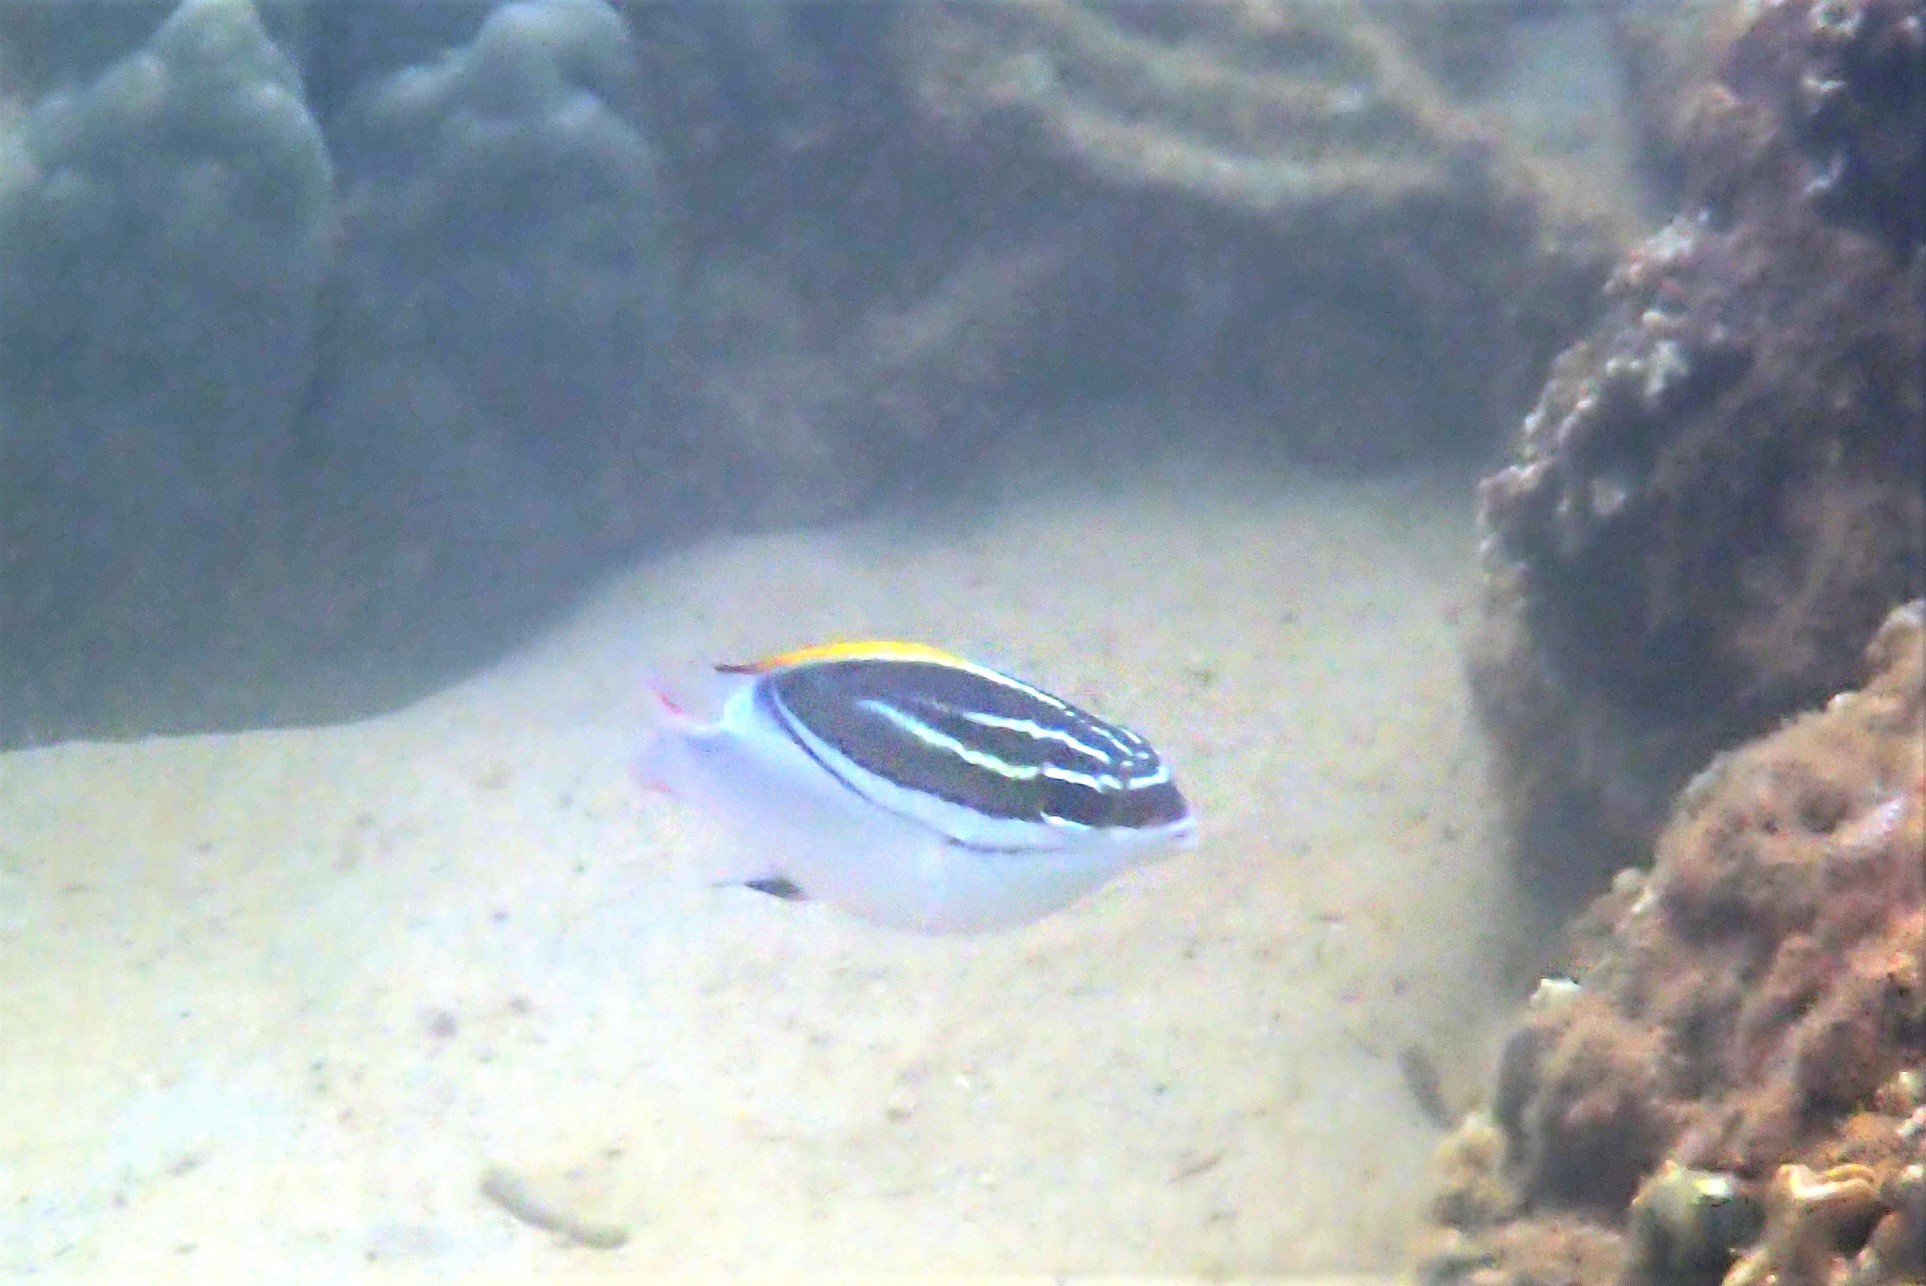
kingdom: Animalia
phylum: Chordata
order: Perciformes
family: Nemipteridae
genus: Scolopsis
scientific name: Scolopsis bilineata
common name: Two-lined monocle bream
